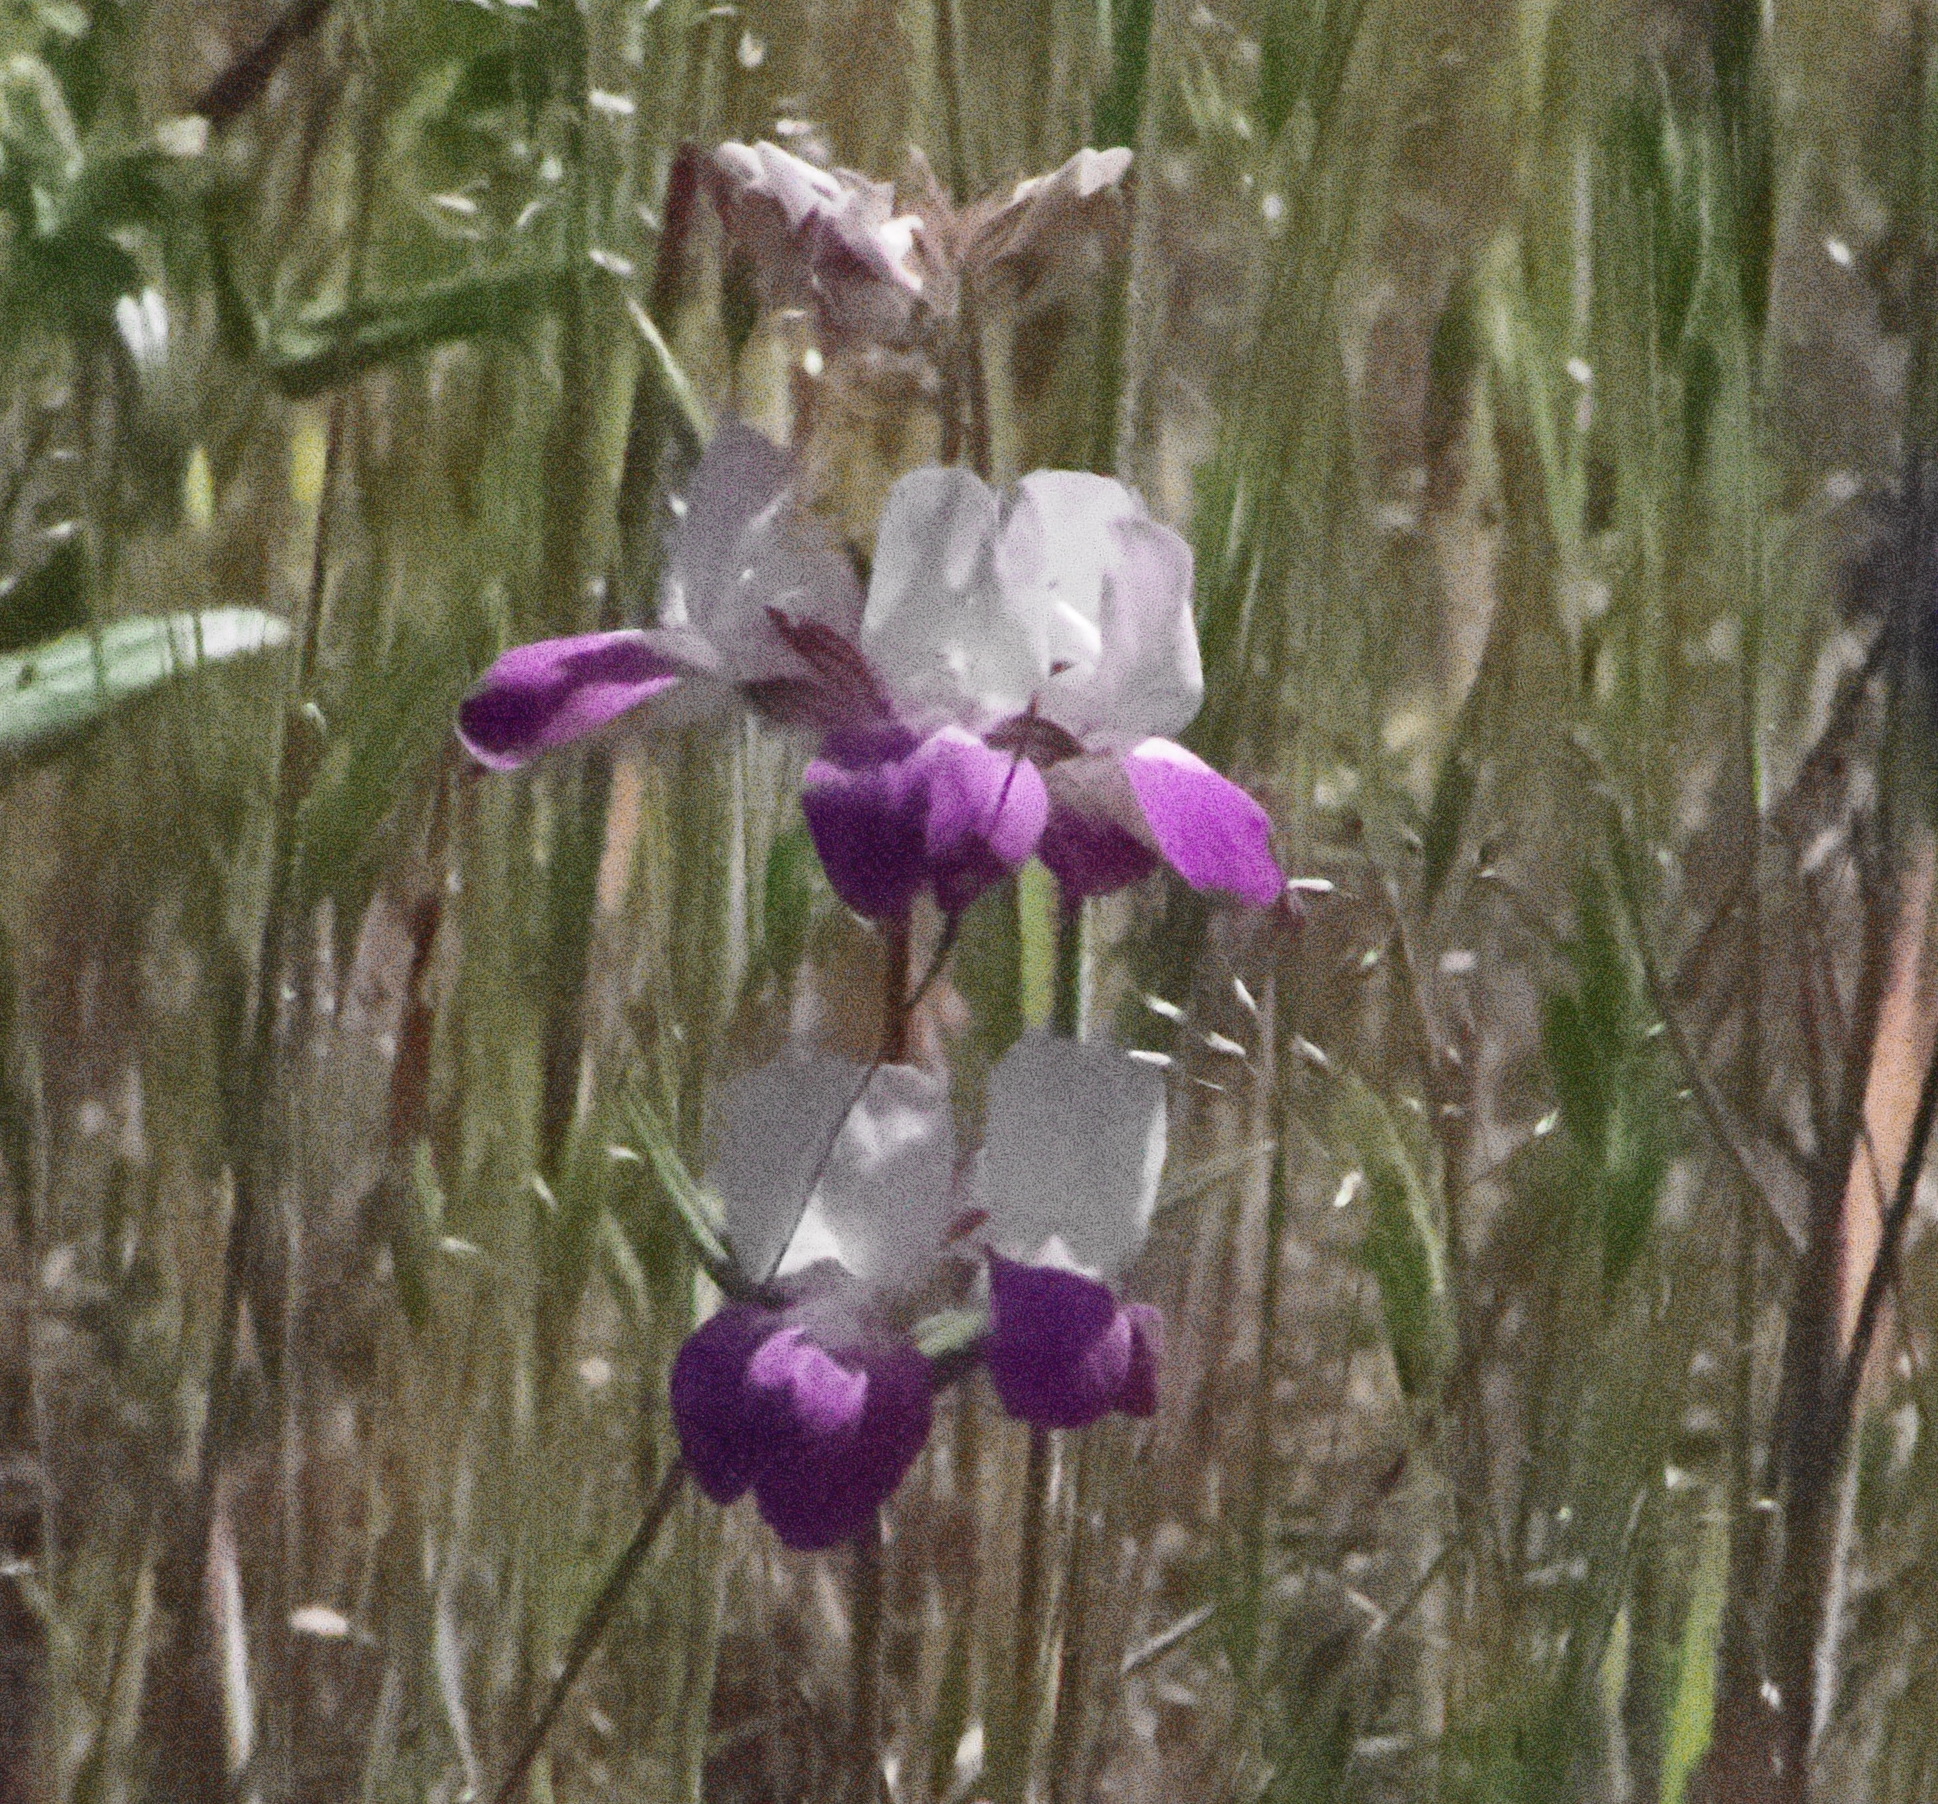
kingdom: Plantae
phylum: Tracheophyta
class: Magnoliopsida
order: Lamiales
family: Plantaginaceae
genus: Collinsia
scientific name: Collinsia heterophylla
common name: Chinese-houses
